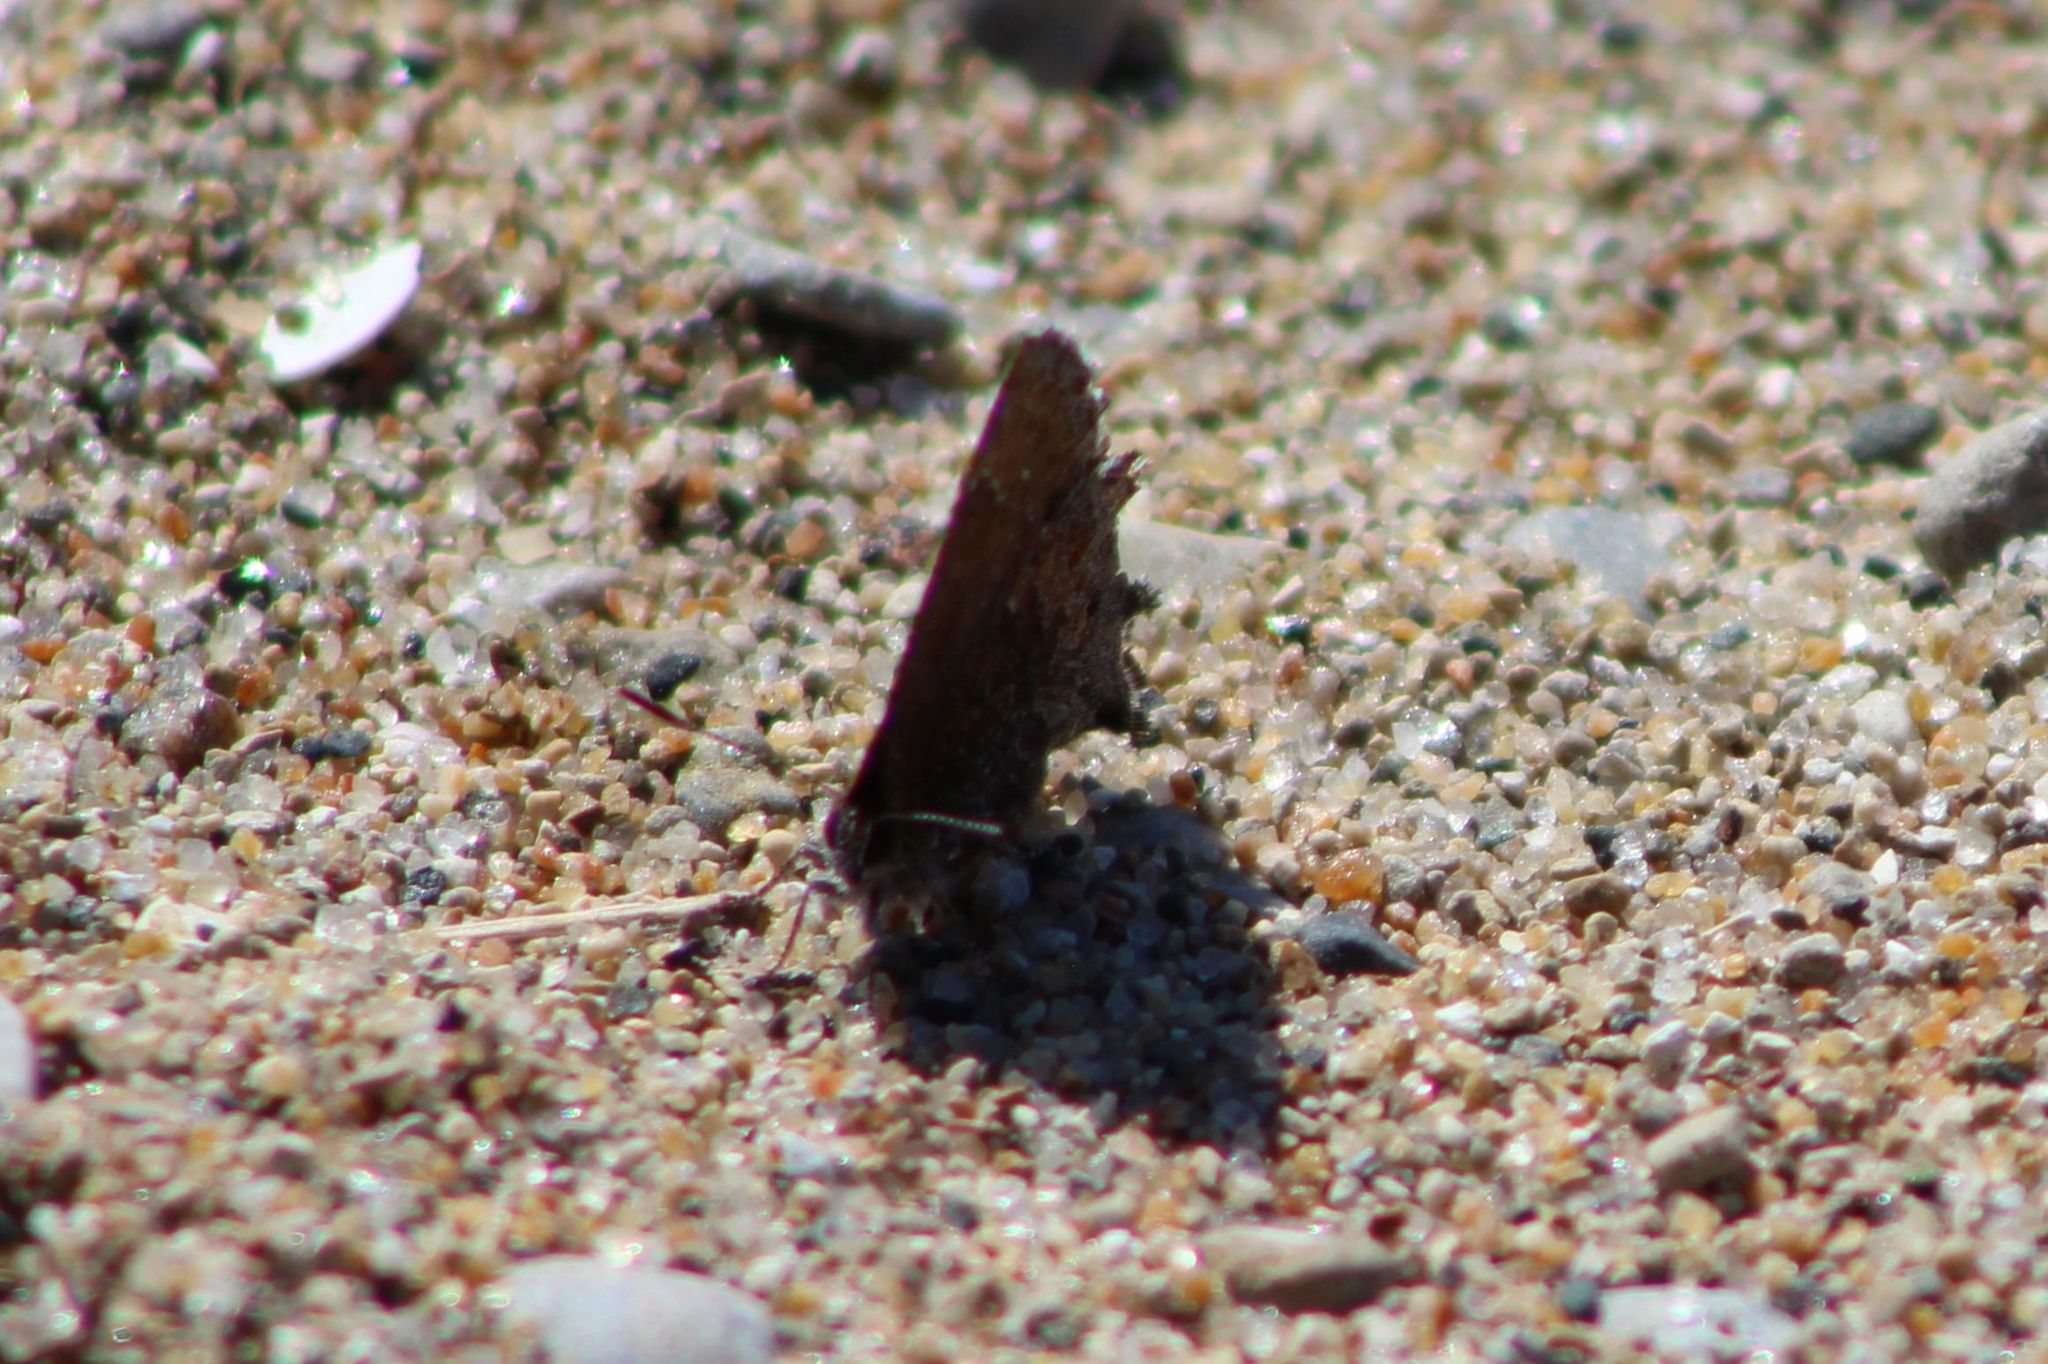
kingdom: Animalia
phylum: Arthropoda
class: Insecta
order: Lepidoptera
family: Lycaenidae
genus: Callophrys
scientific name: Callophrys polios
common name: Hoary elfin
